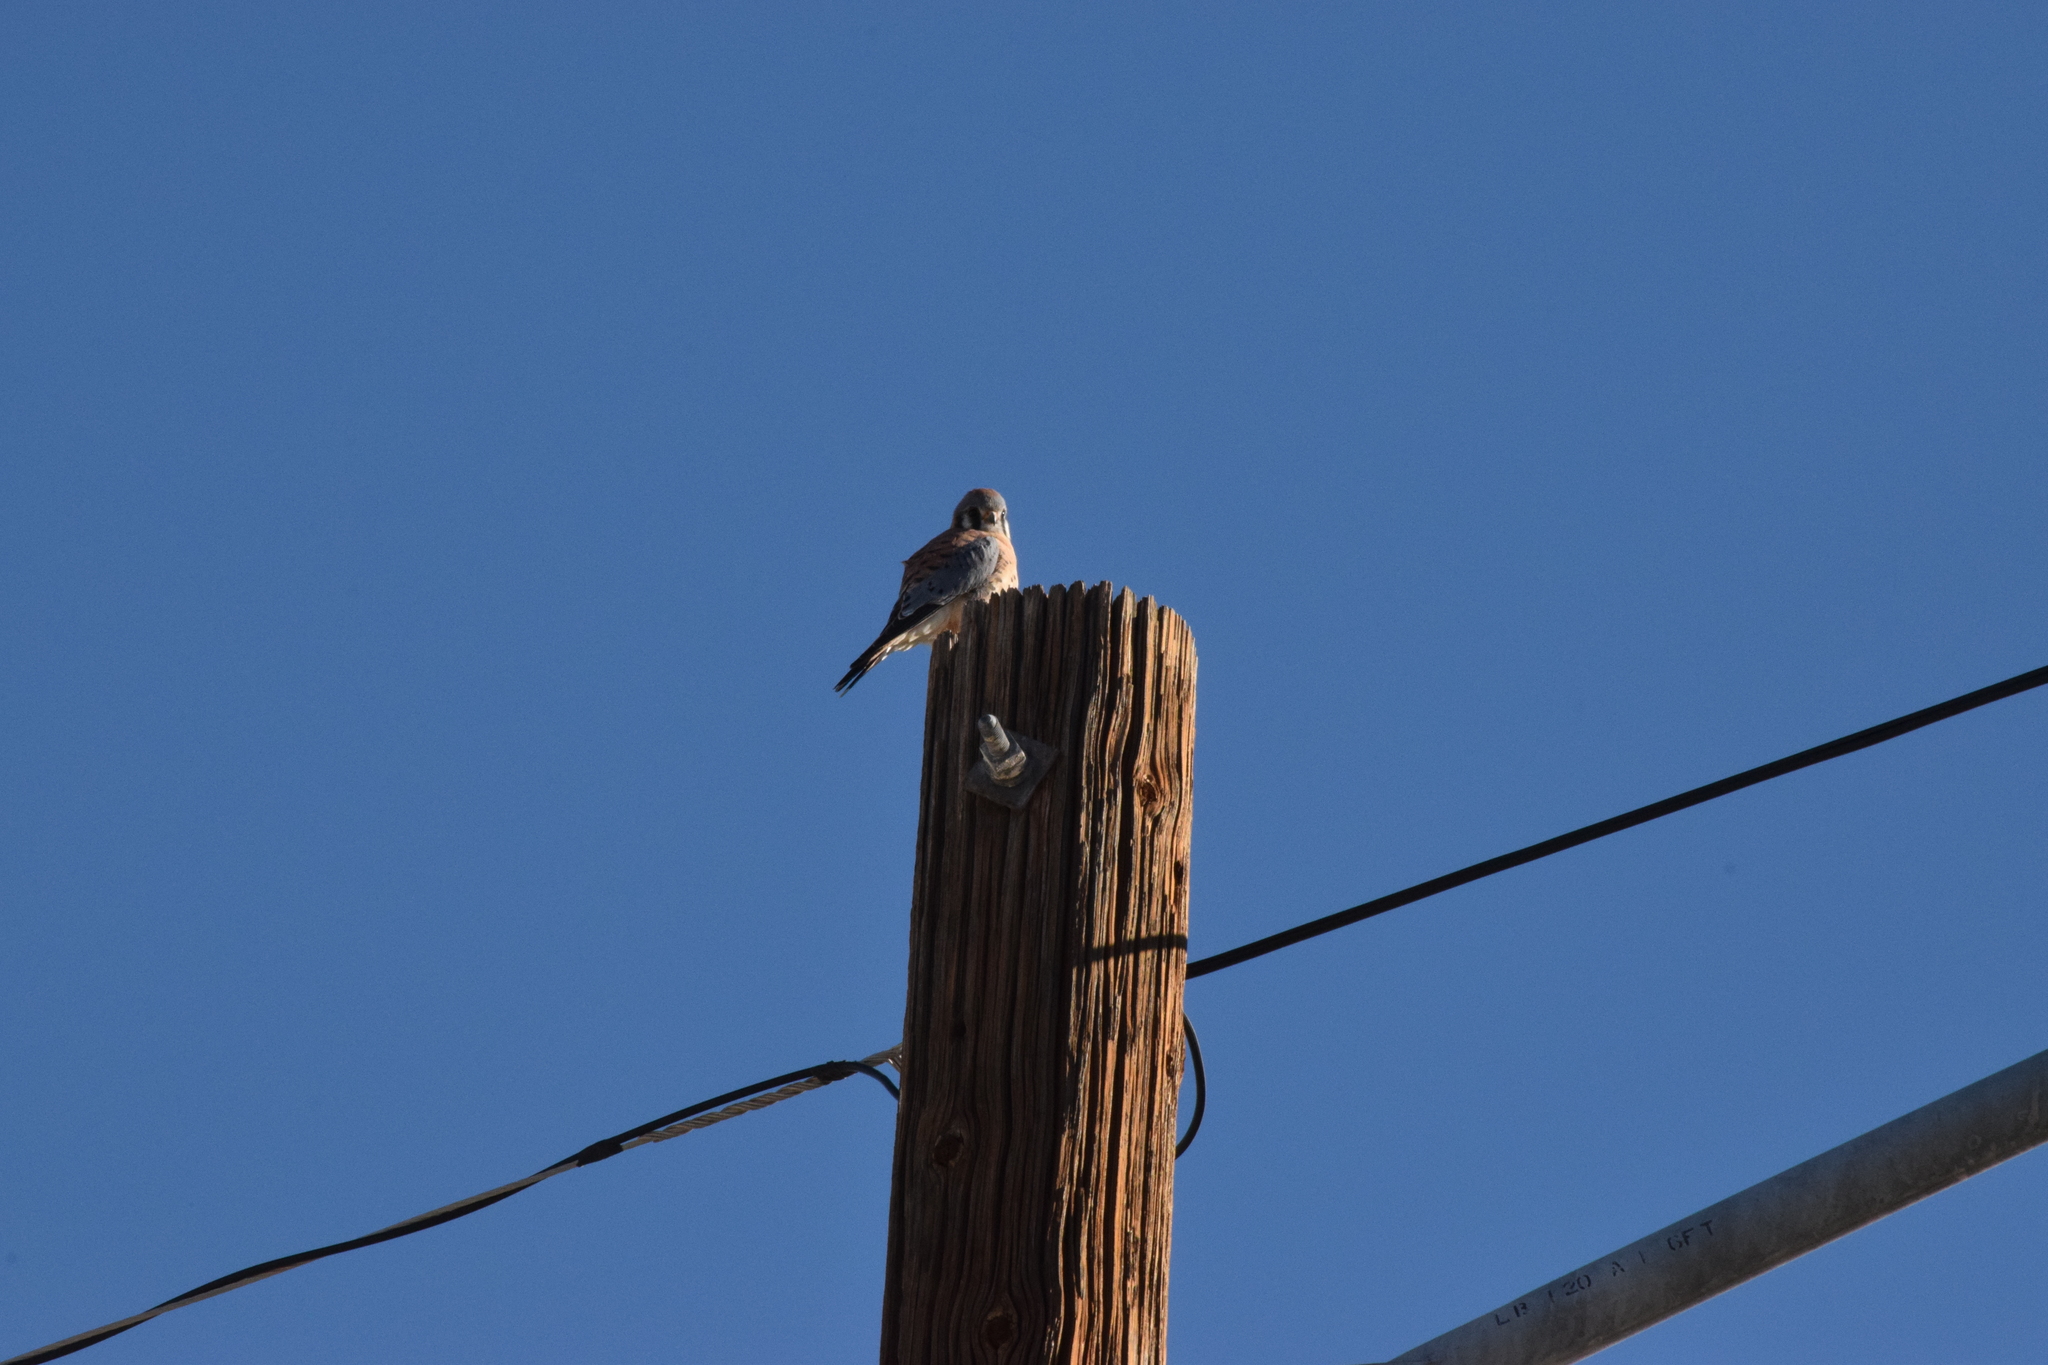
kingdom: Animalia
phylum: Chordata
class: Aves
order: Falconiformes
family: Falconidae
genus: Falco
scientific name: Falco sparverius
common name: American kestrel
